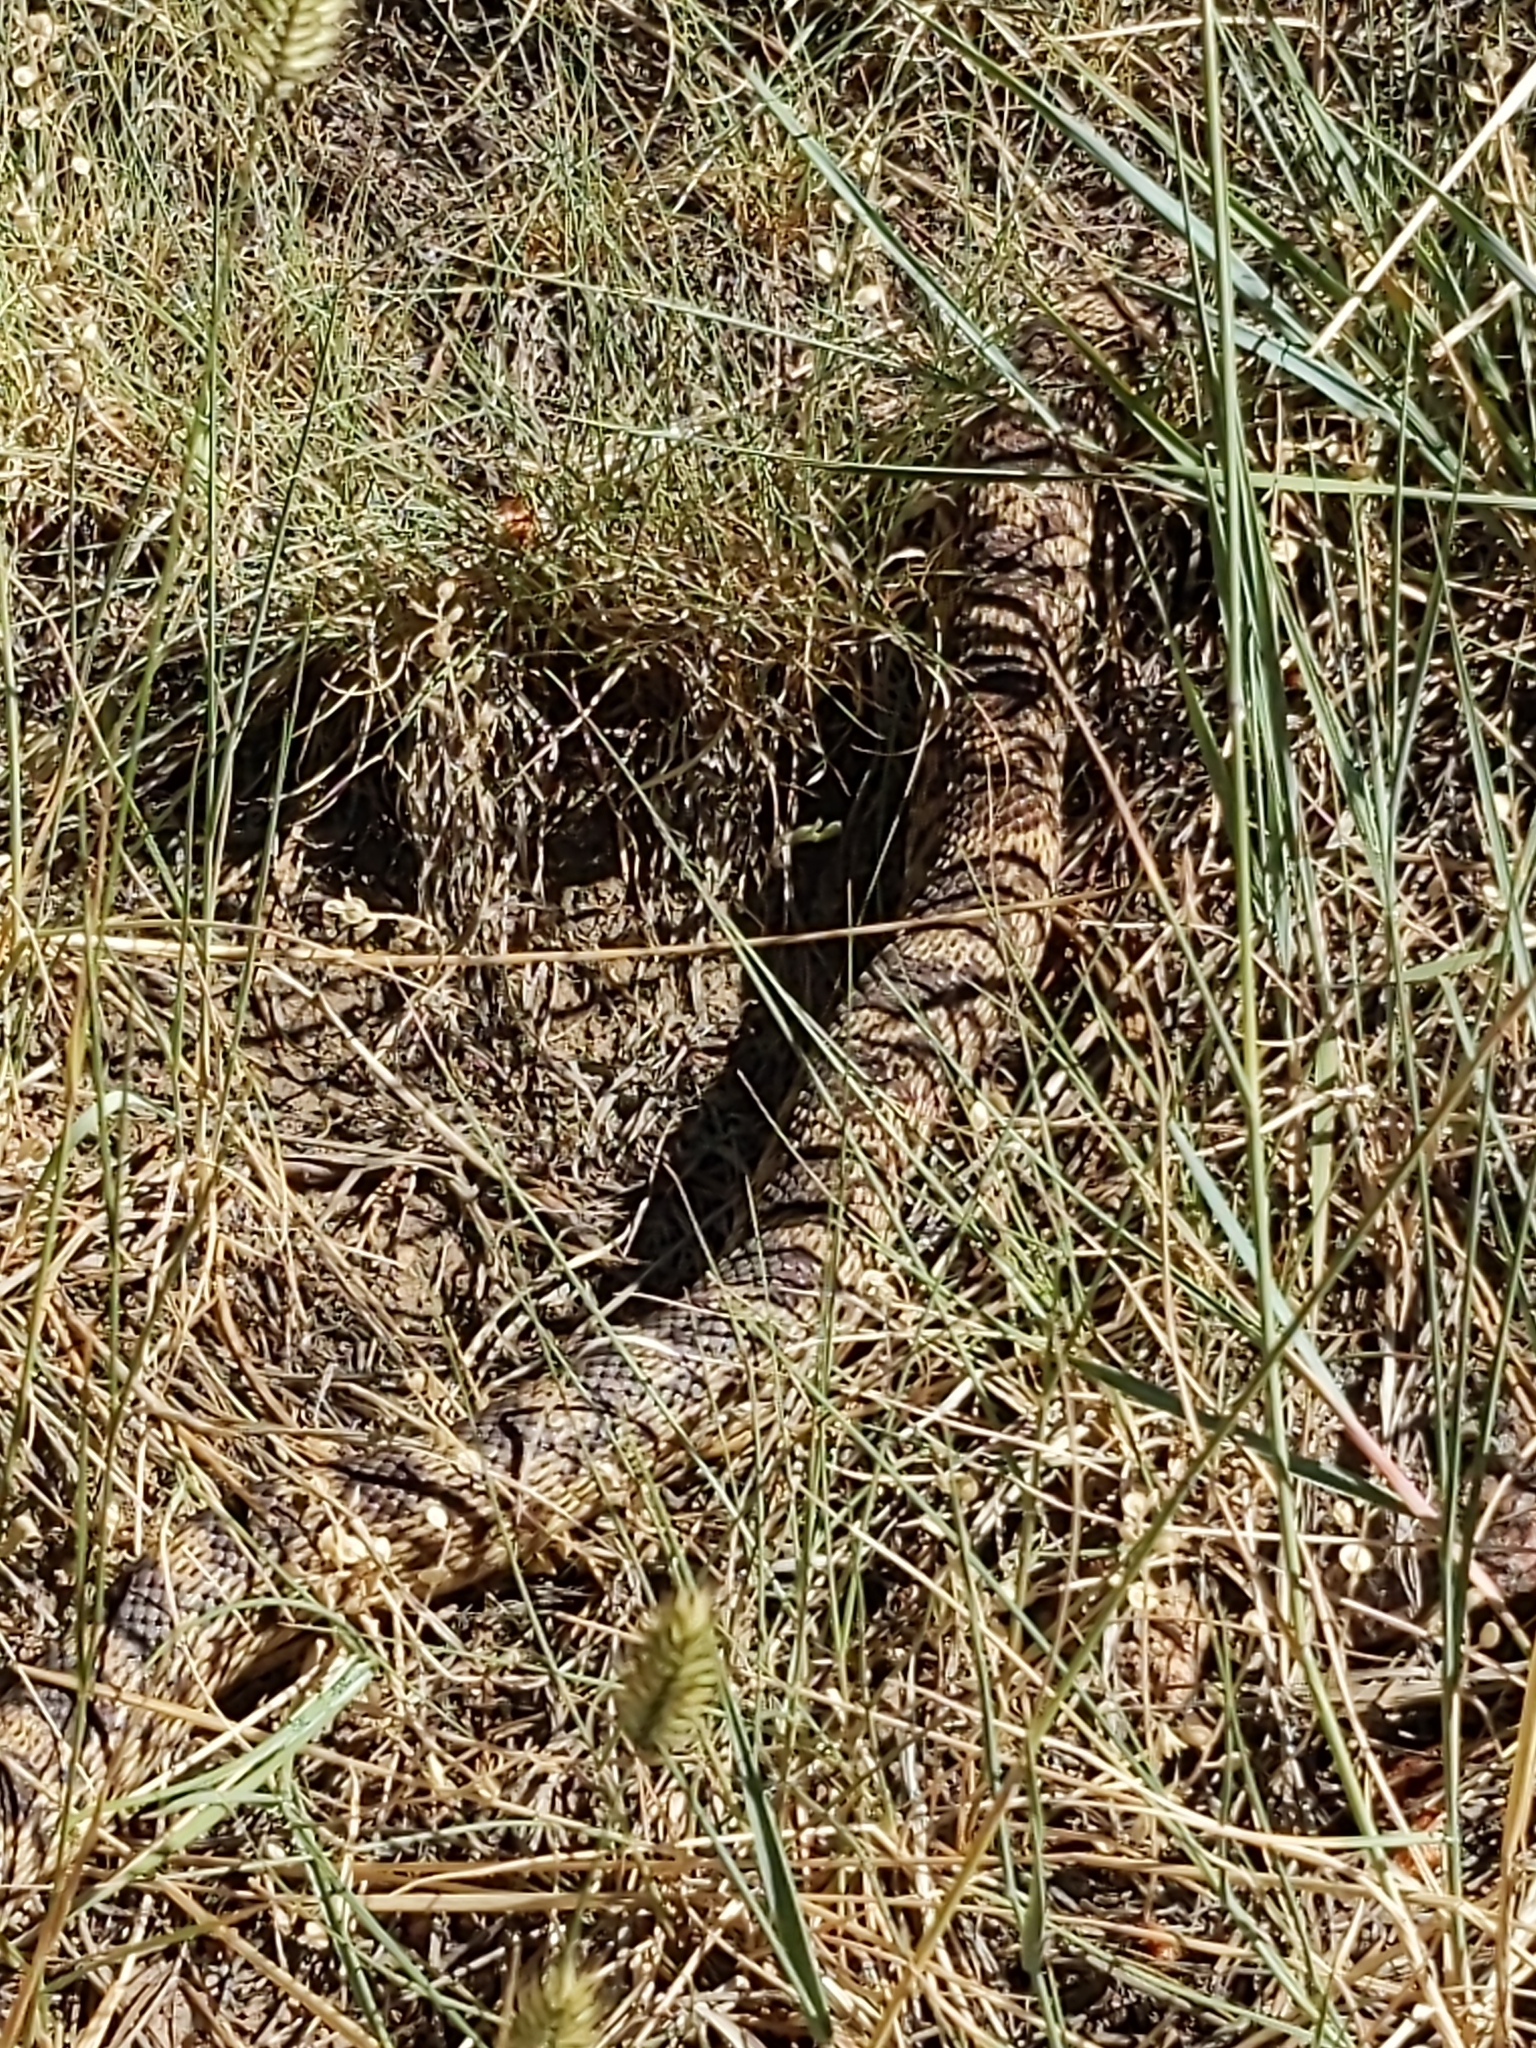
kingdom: Animalia
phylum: Chordata
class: Squamata
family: Colubridae
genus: Pituophis
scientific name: Pituophis catenifer
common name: Gopher snake
